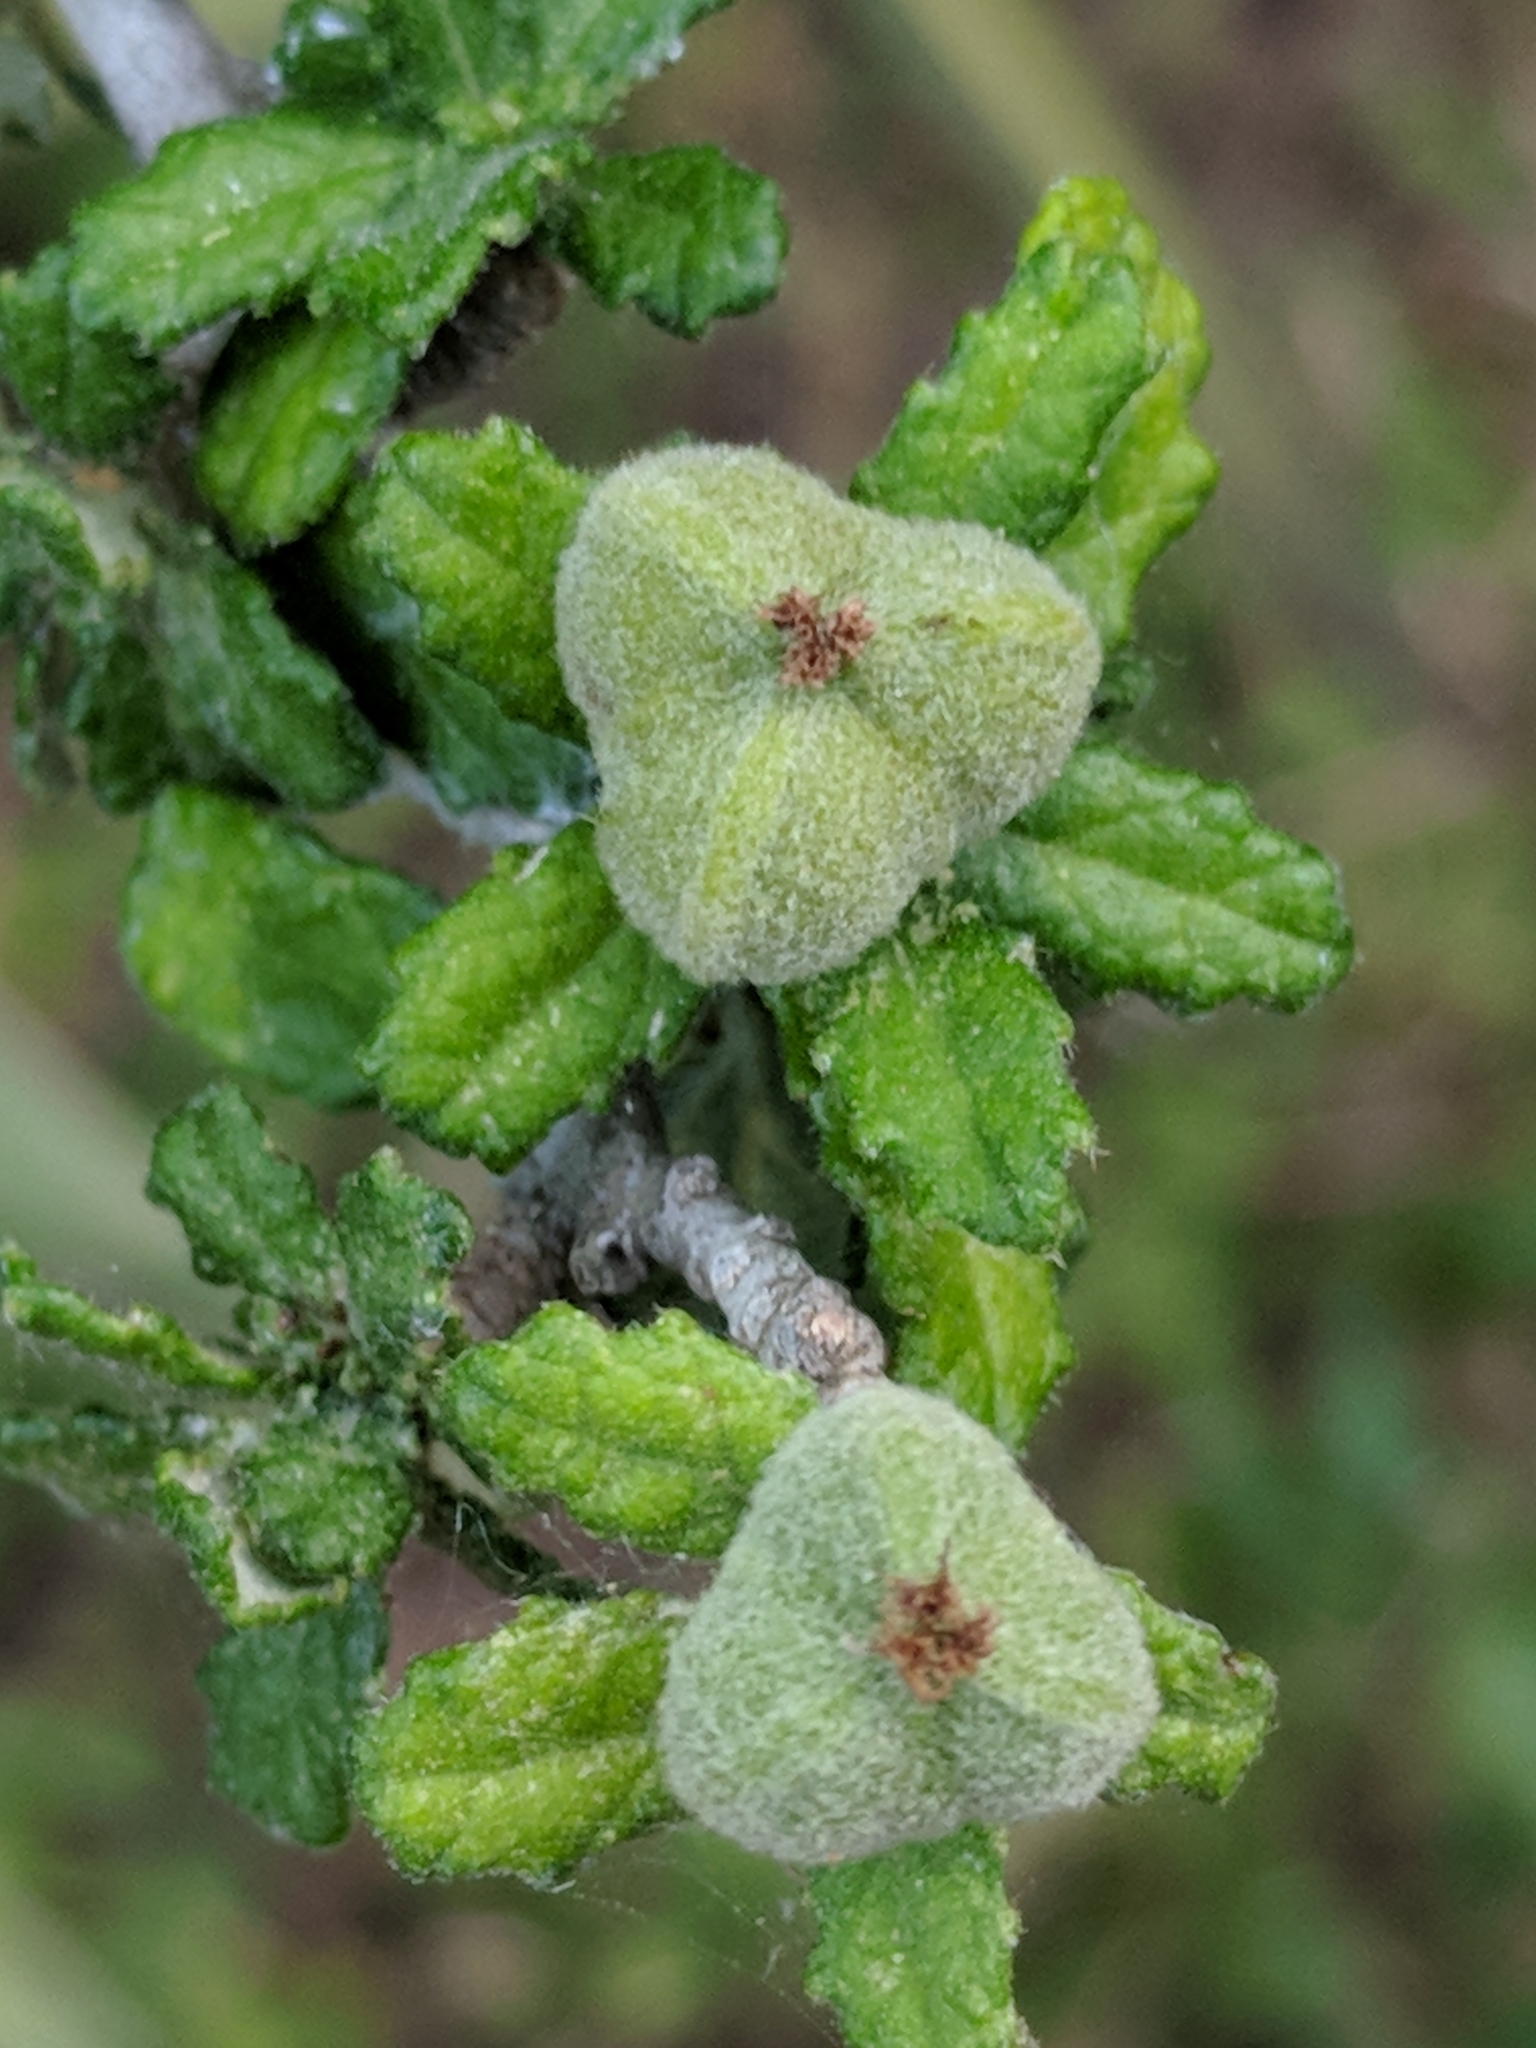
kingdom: Plantae
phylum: Tracheophyta
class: Magnoliopsida
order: Malpighiales
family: Euphorbiaceae
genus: Bernardia
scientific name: Bernardia myricifolia
